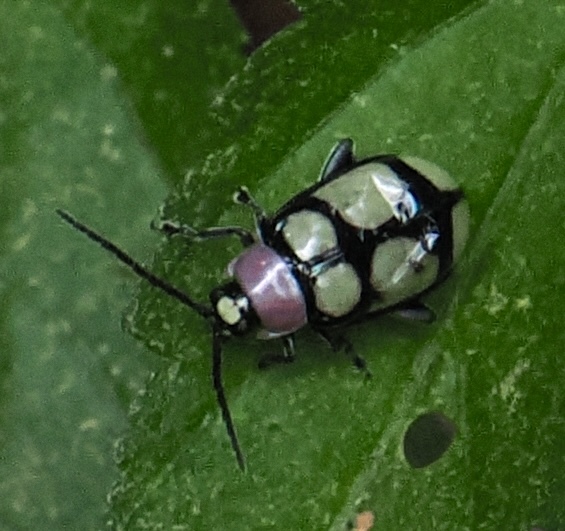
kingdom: Animalia
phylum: Arthropoda
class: Insecta
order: Coleoptera
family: Chrysomelidae
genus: Omophoita
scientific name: Omophoita
